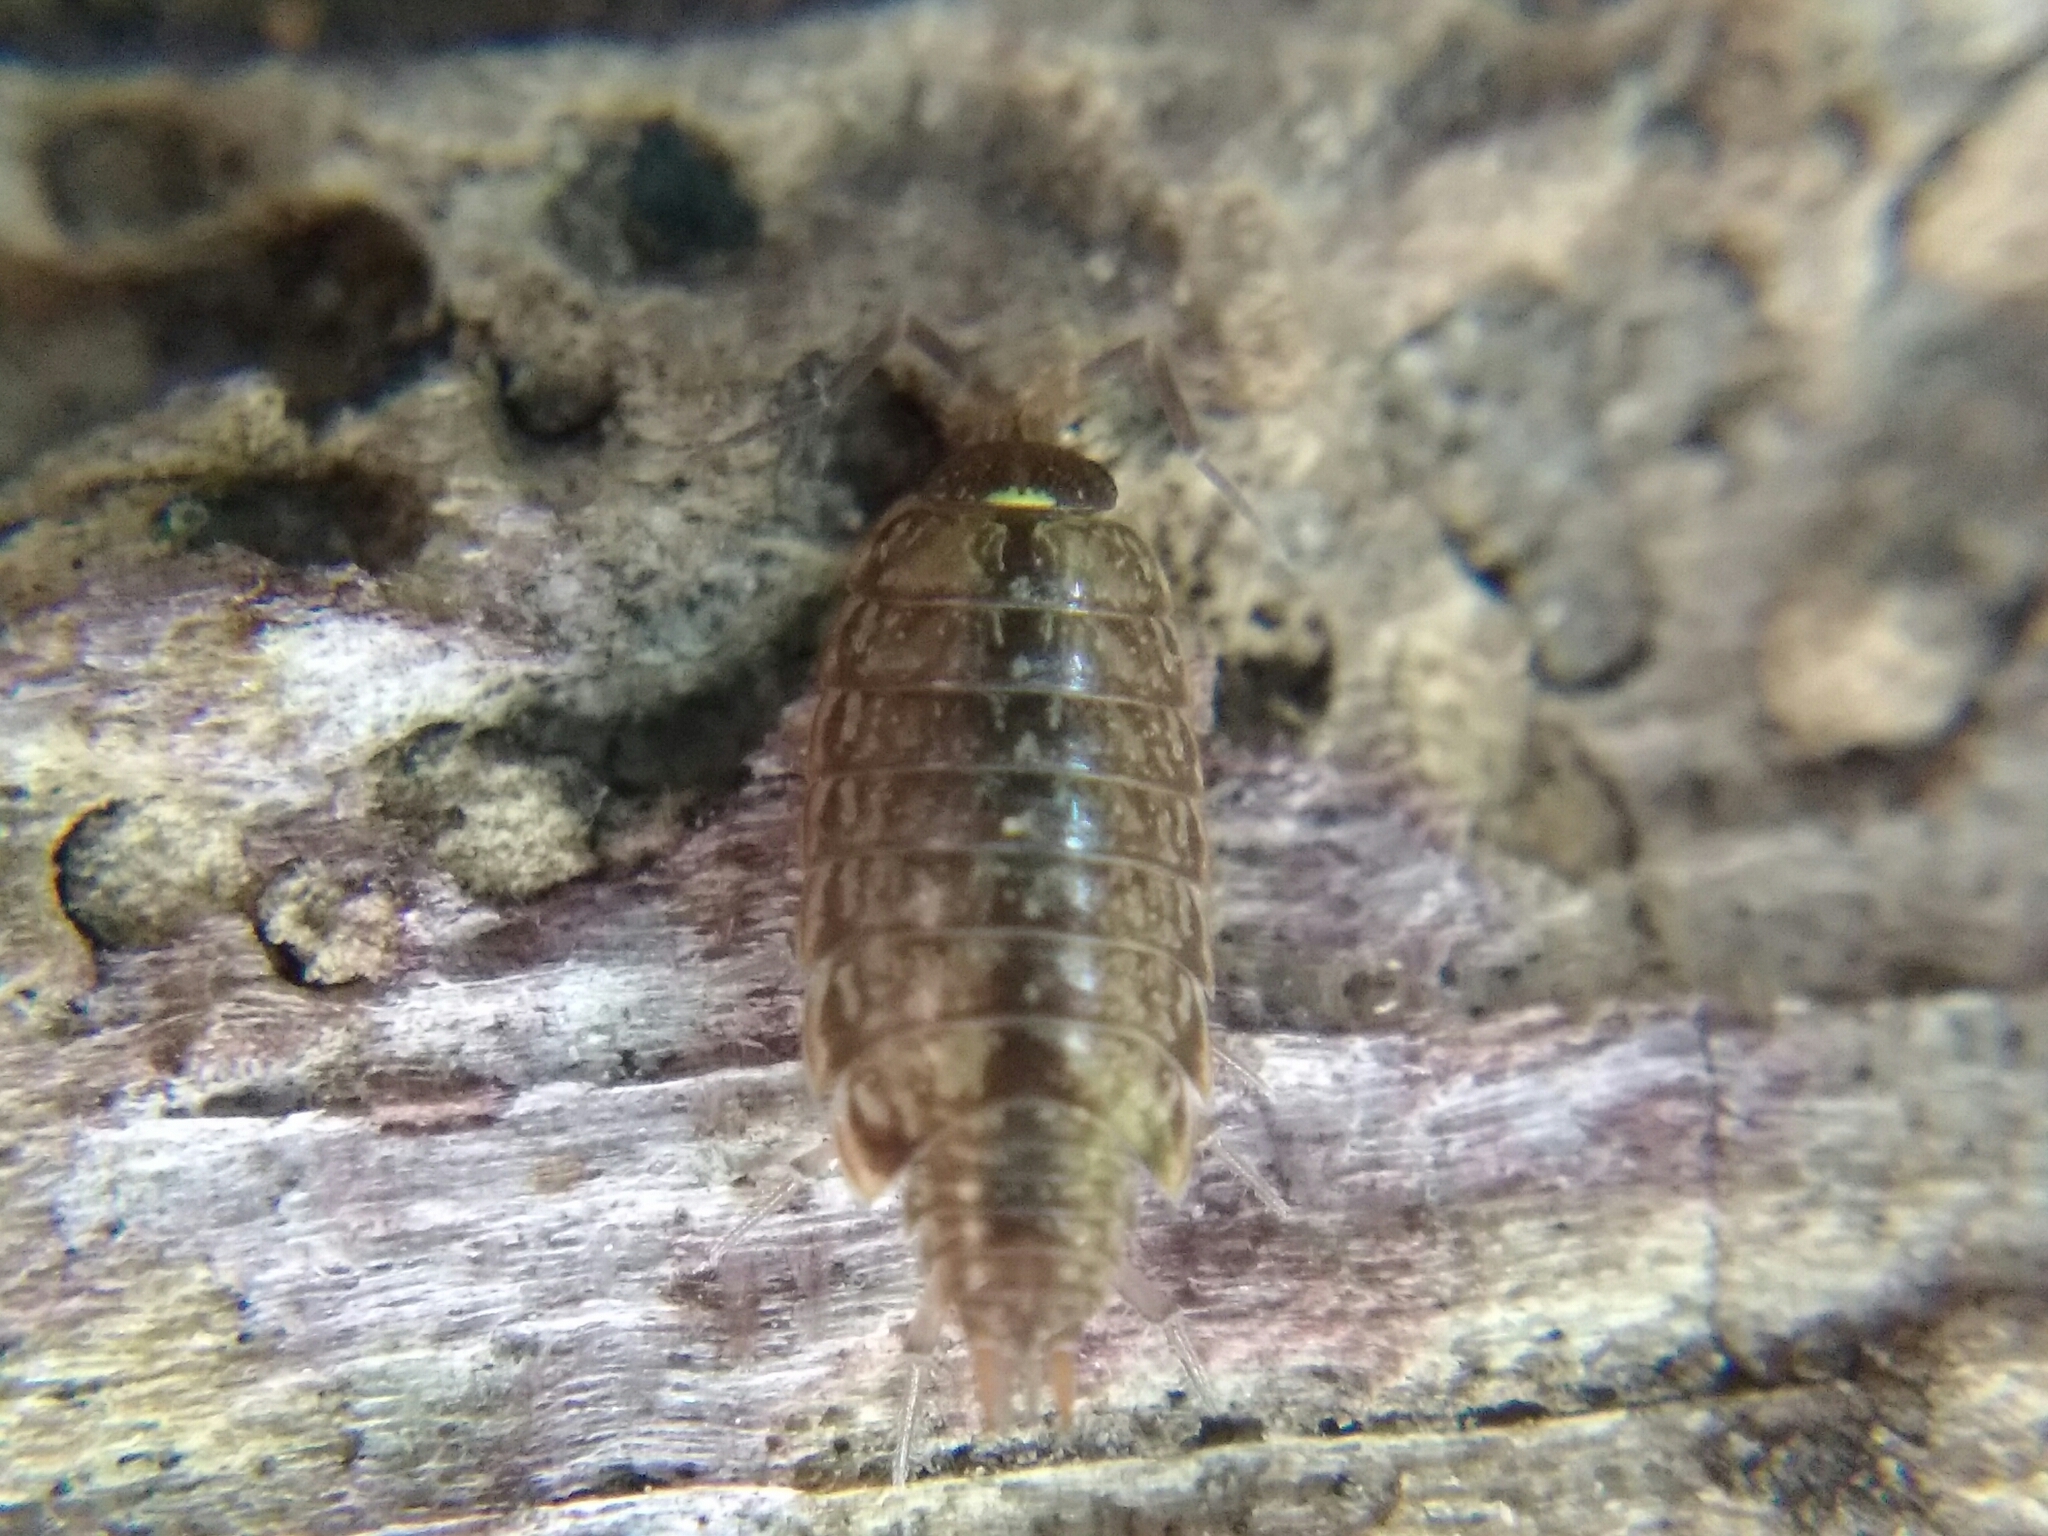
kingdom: Animalia
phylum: Arthropoda
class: Malacostraca
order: Isopoda
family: Philosciidae
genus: Philoscia
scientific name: Philoscia muscorum
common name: Common striped woodlouse
